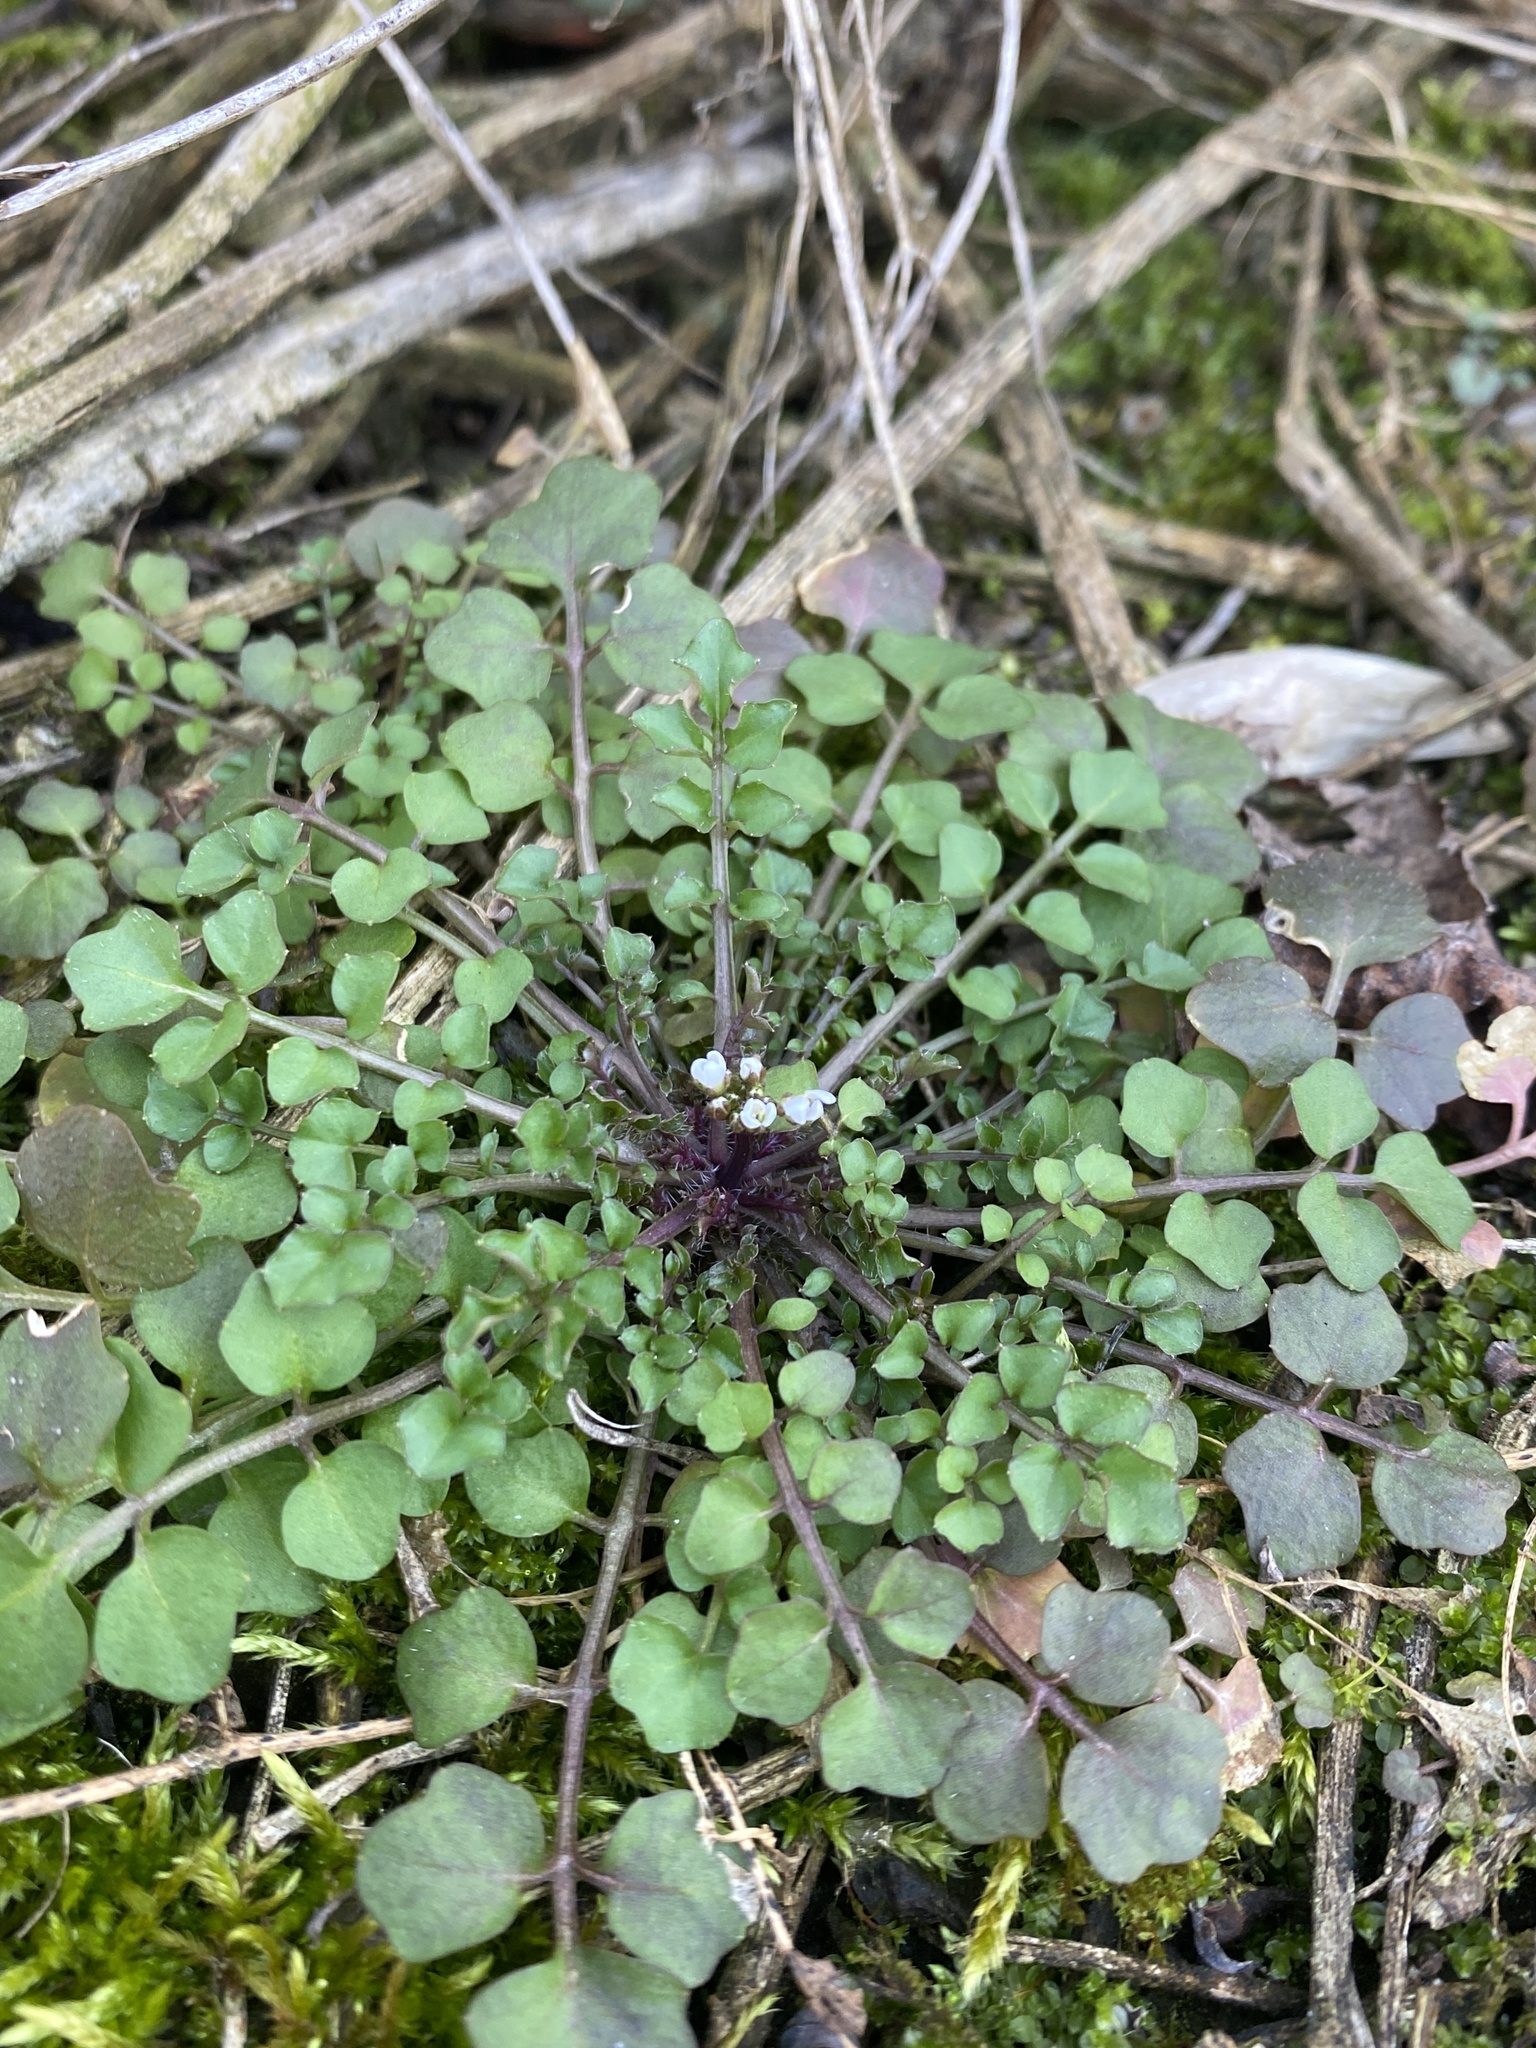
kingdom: Plantae
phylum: Tracheophyta
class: Magnoliopsida
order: Brassicales
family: Brassicaceae
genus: Cardamine
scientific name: Cardamine hirsuta
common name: Hairy bittercress
